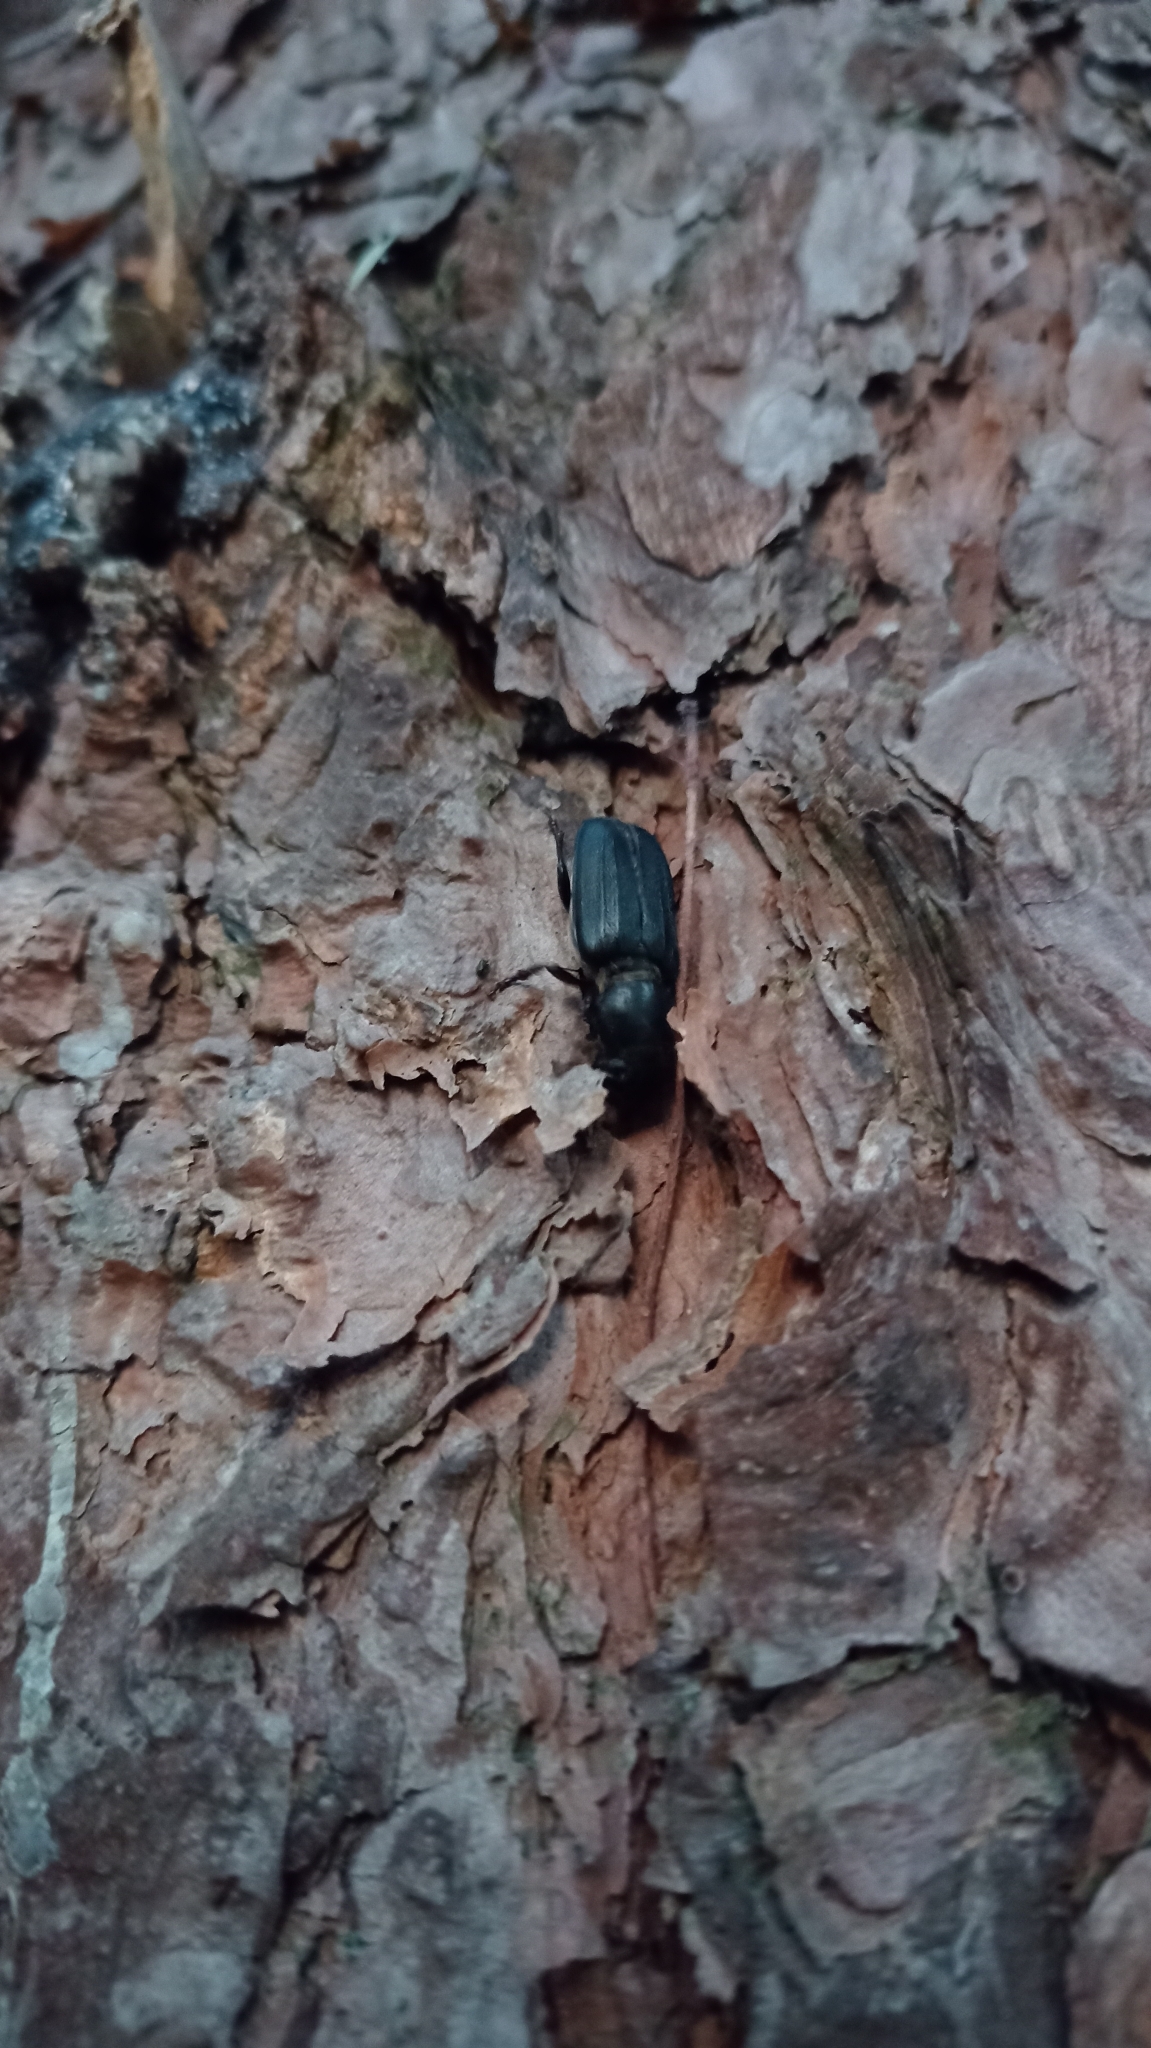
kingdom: Animalia
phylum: Arthropoda
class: Insecta
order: Coleoptera
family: Cerambycidae
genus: Spondylis
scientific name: Spondylis buprestoides
